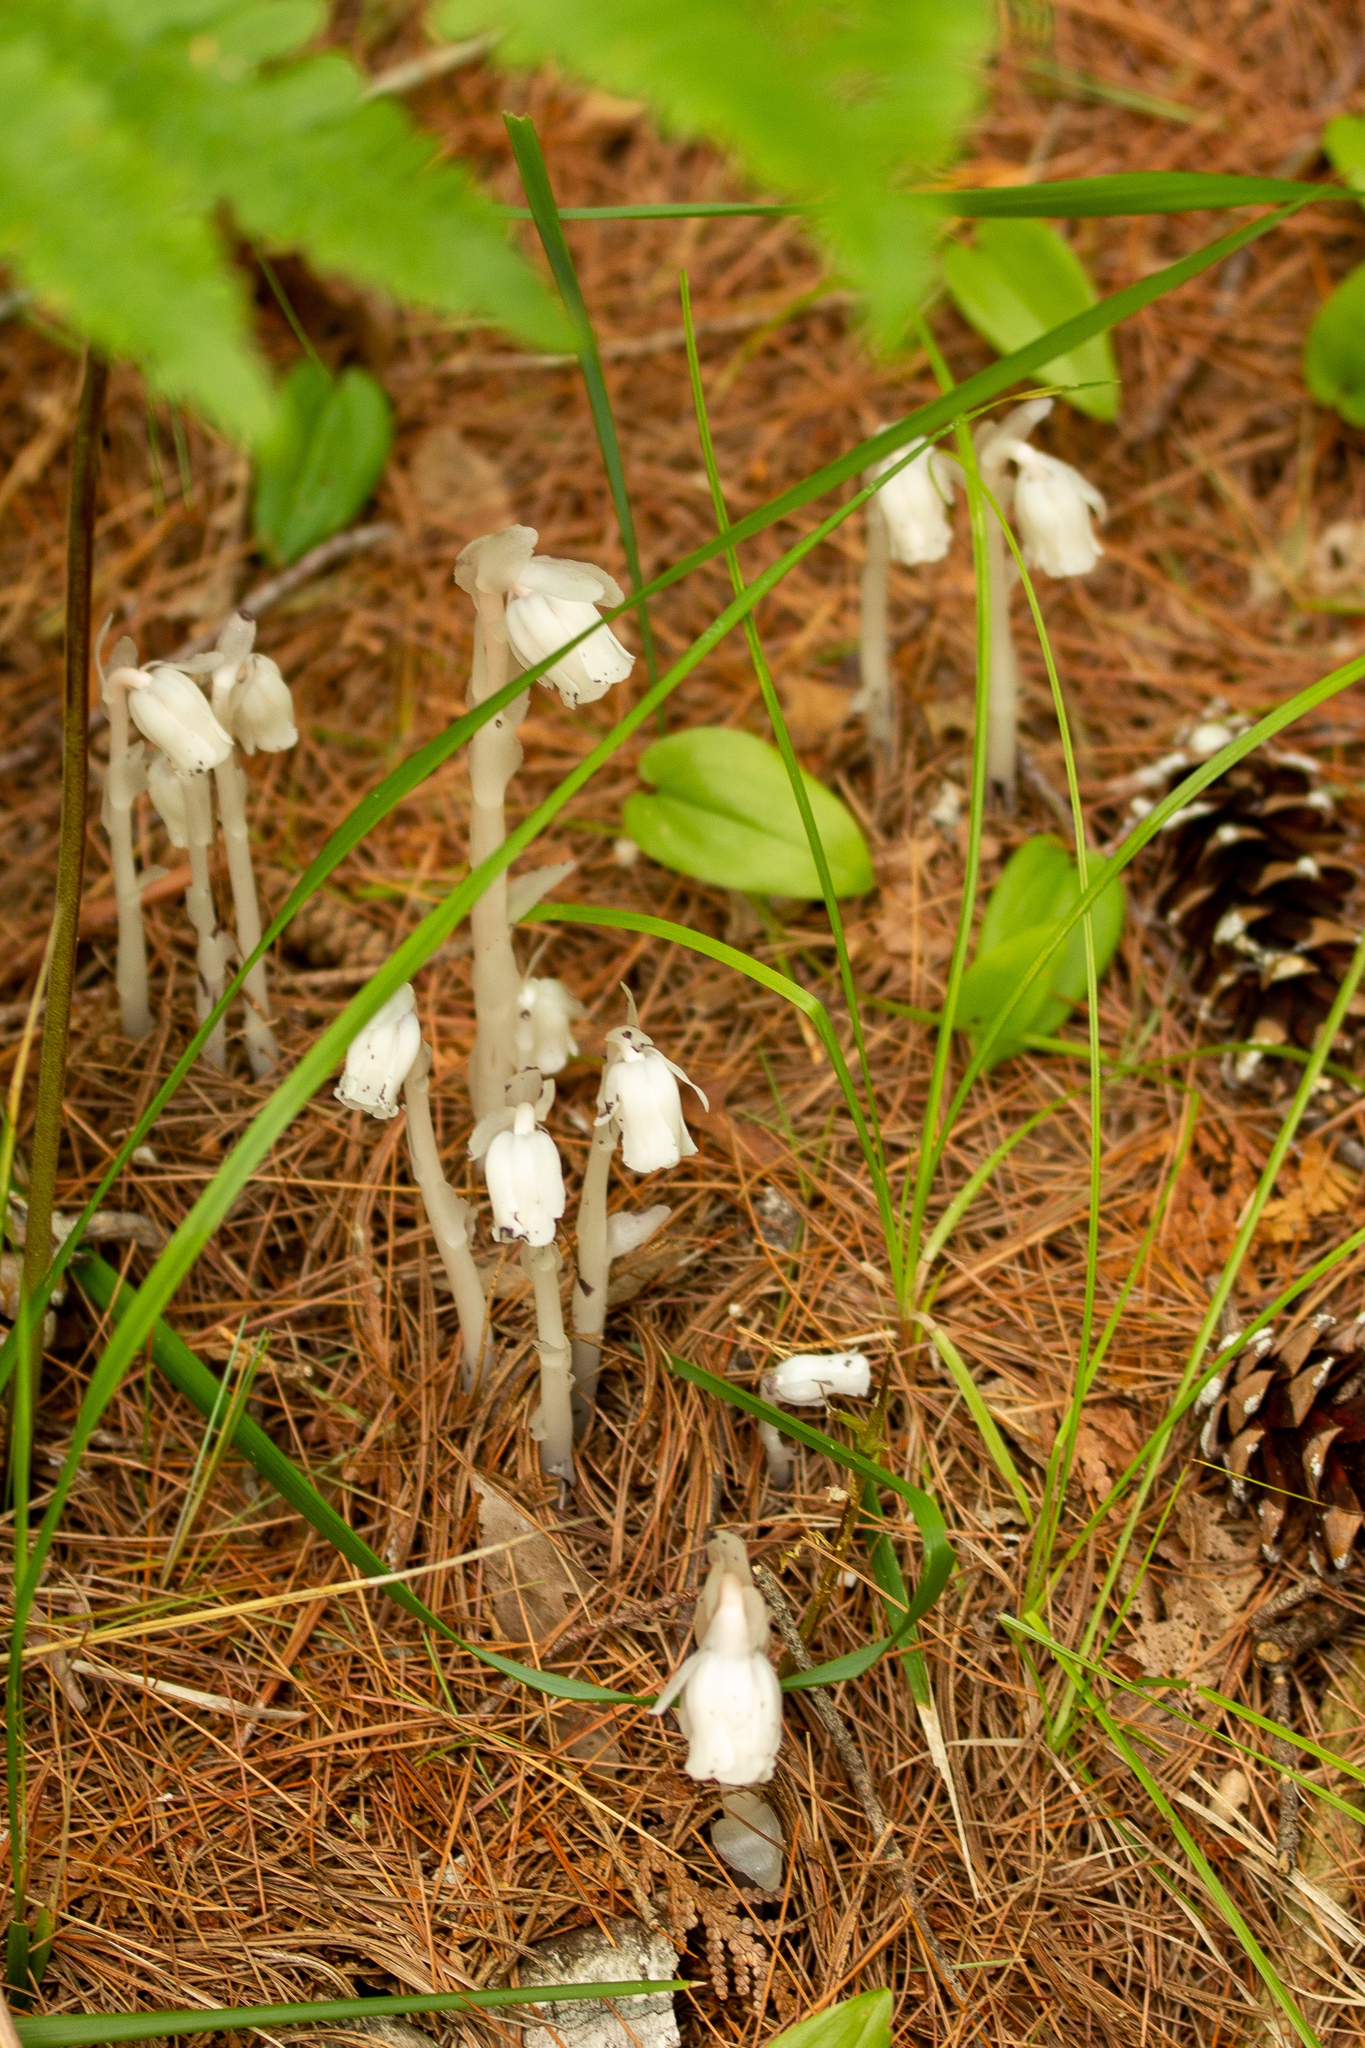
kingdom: Plantae
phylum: Tracheophyta
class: Magnoliopsida
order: Ericales
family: Ericaceae
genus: Monotropa
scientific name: Monotropa uniflora
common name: Convulsion root
